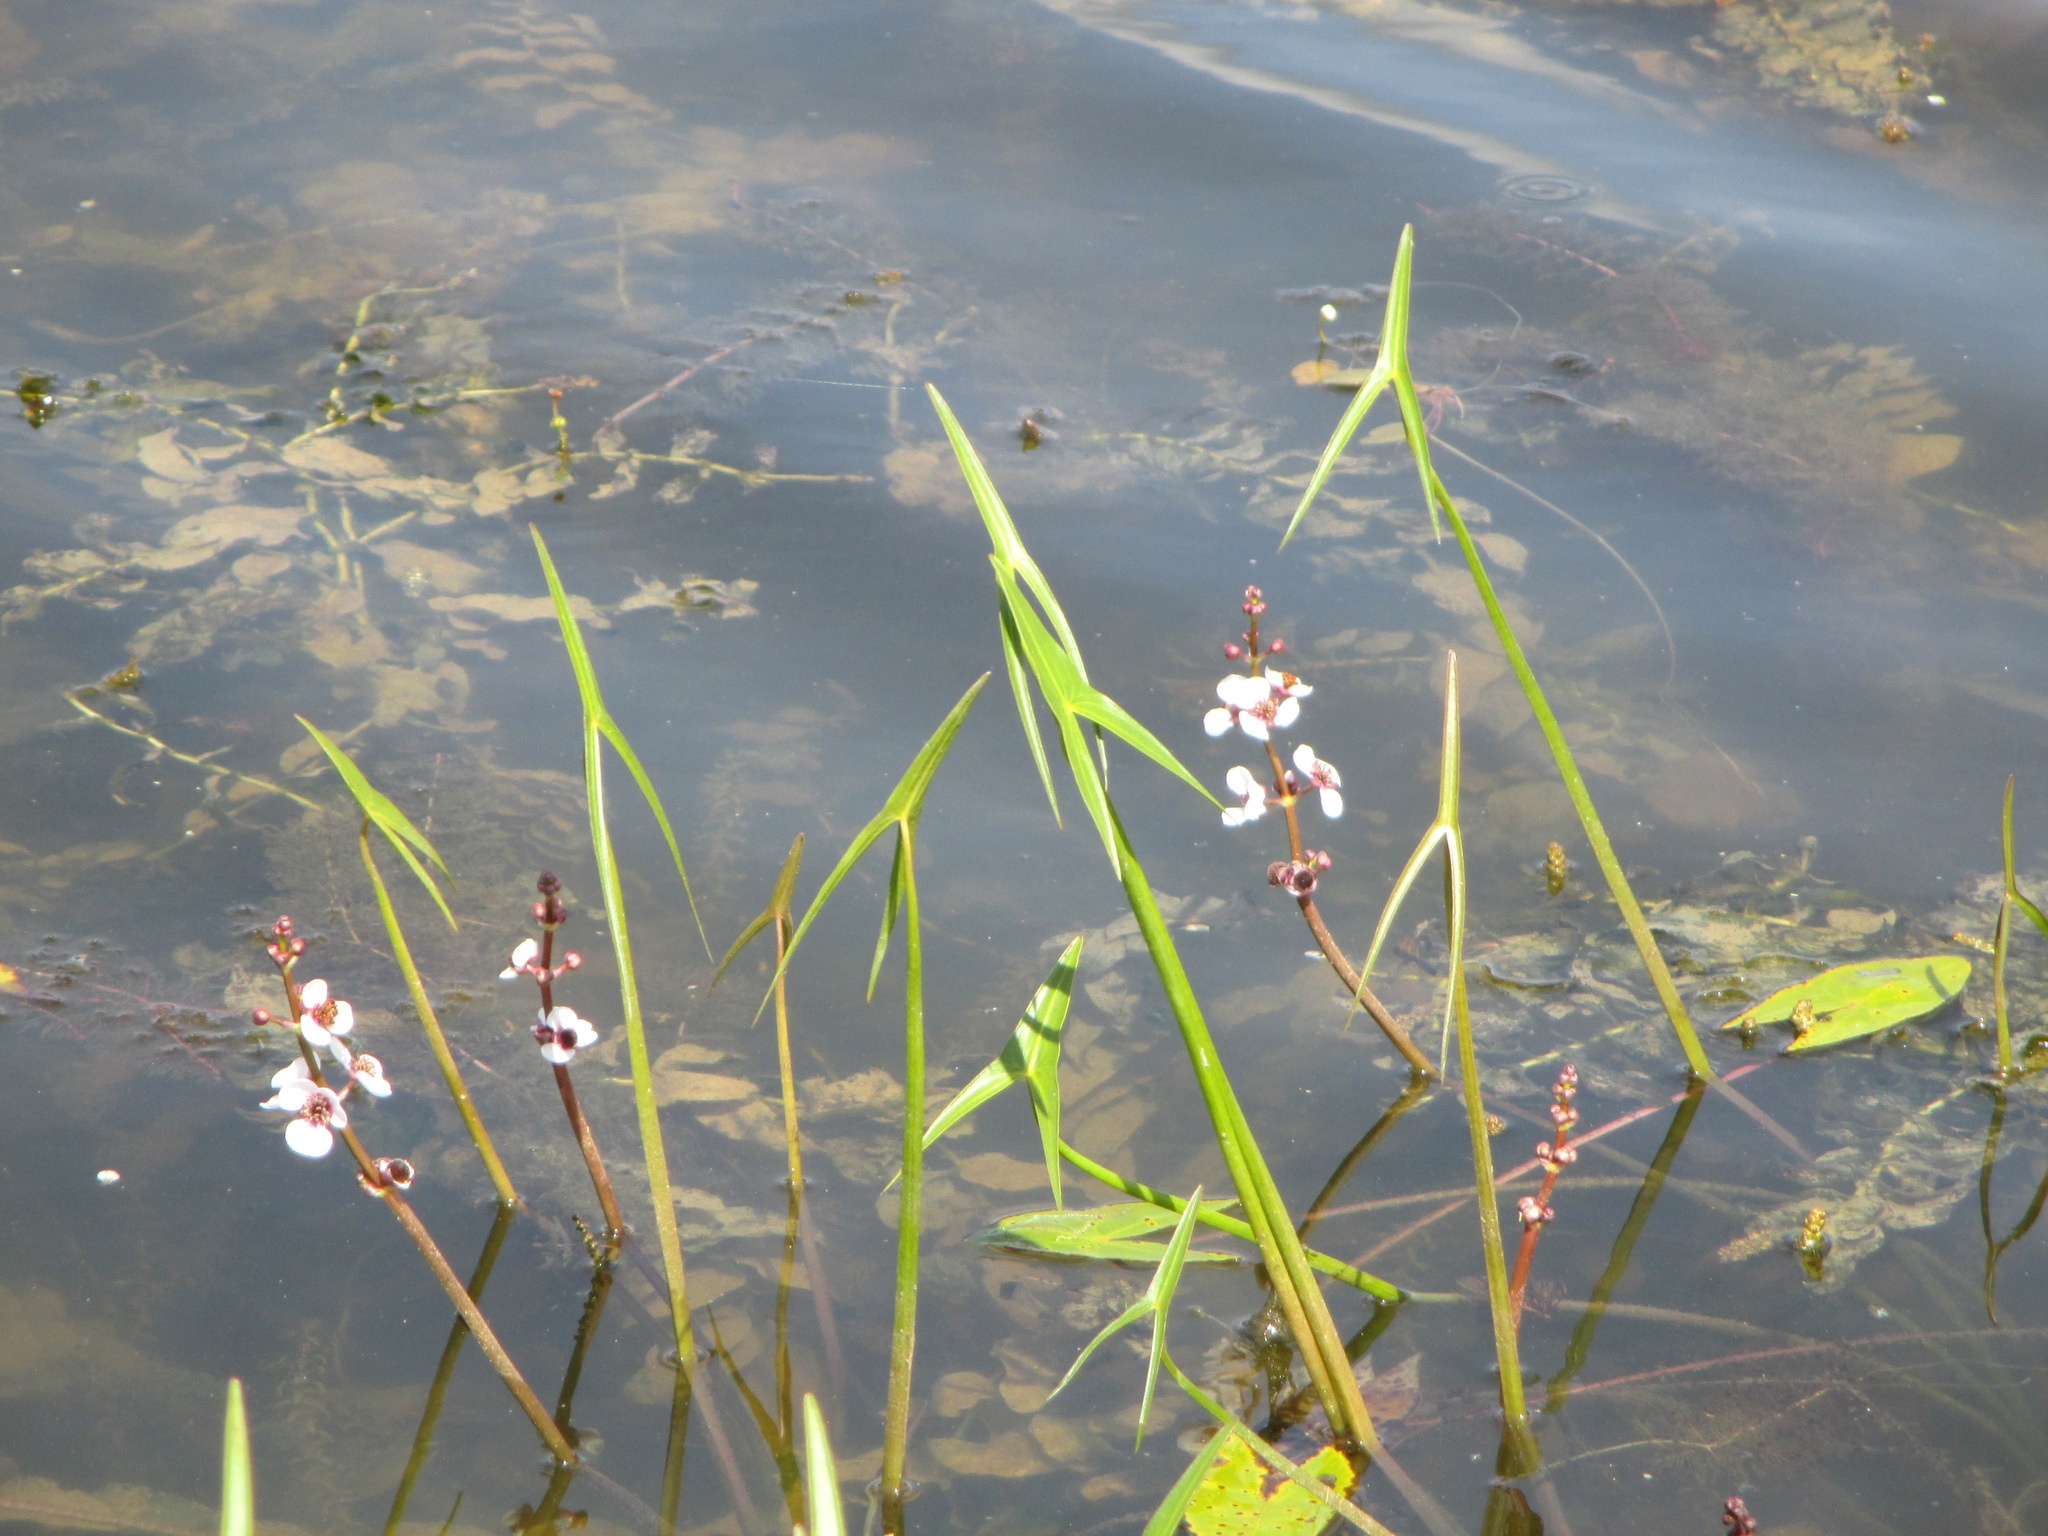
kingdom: Plantae
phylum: Tracheophyta
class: Liliopsida
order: Alismatales
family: Alismataceae
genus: Sagittaria
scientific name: Sagittaria sagittifolia
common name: Arrowhead
